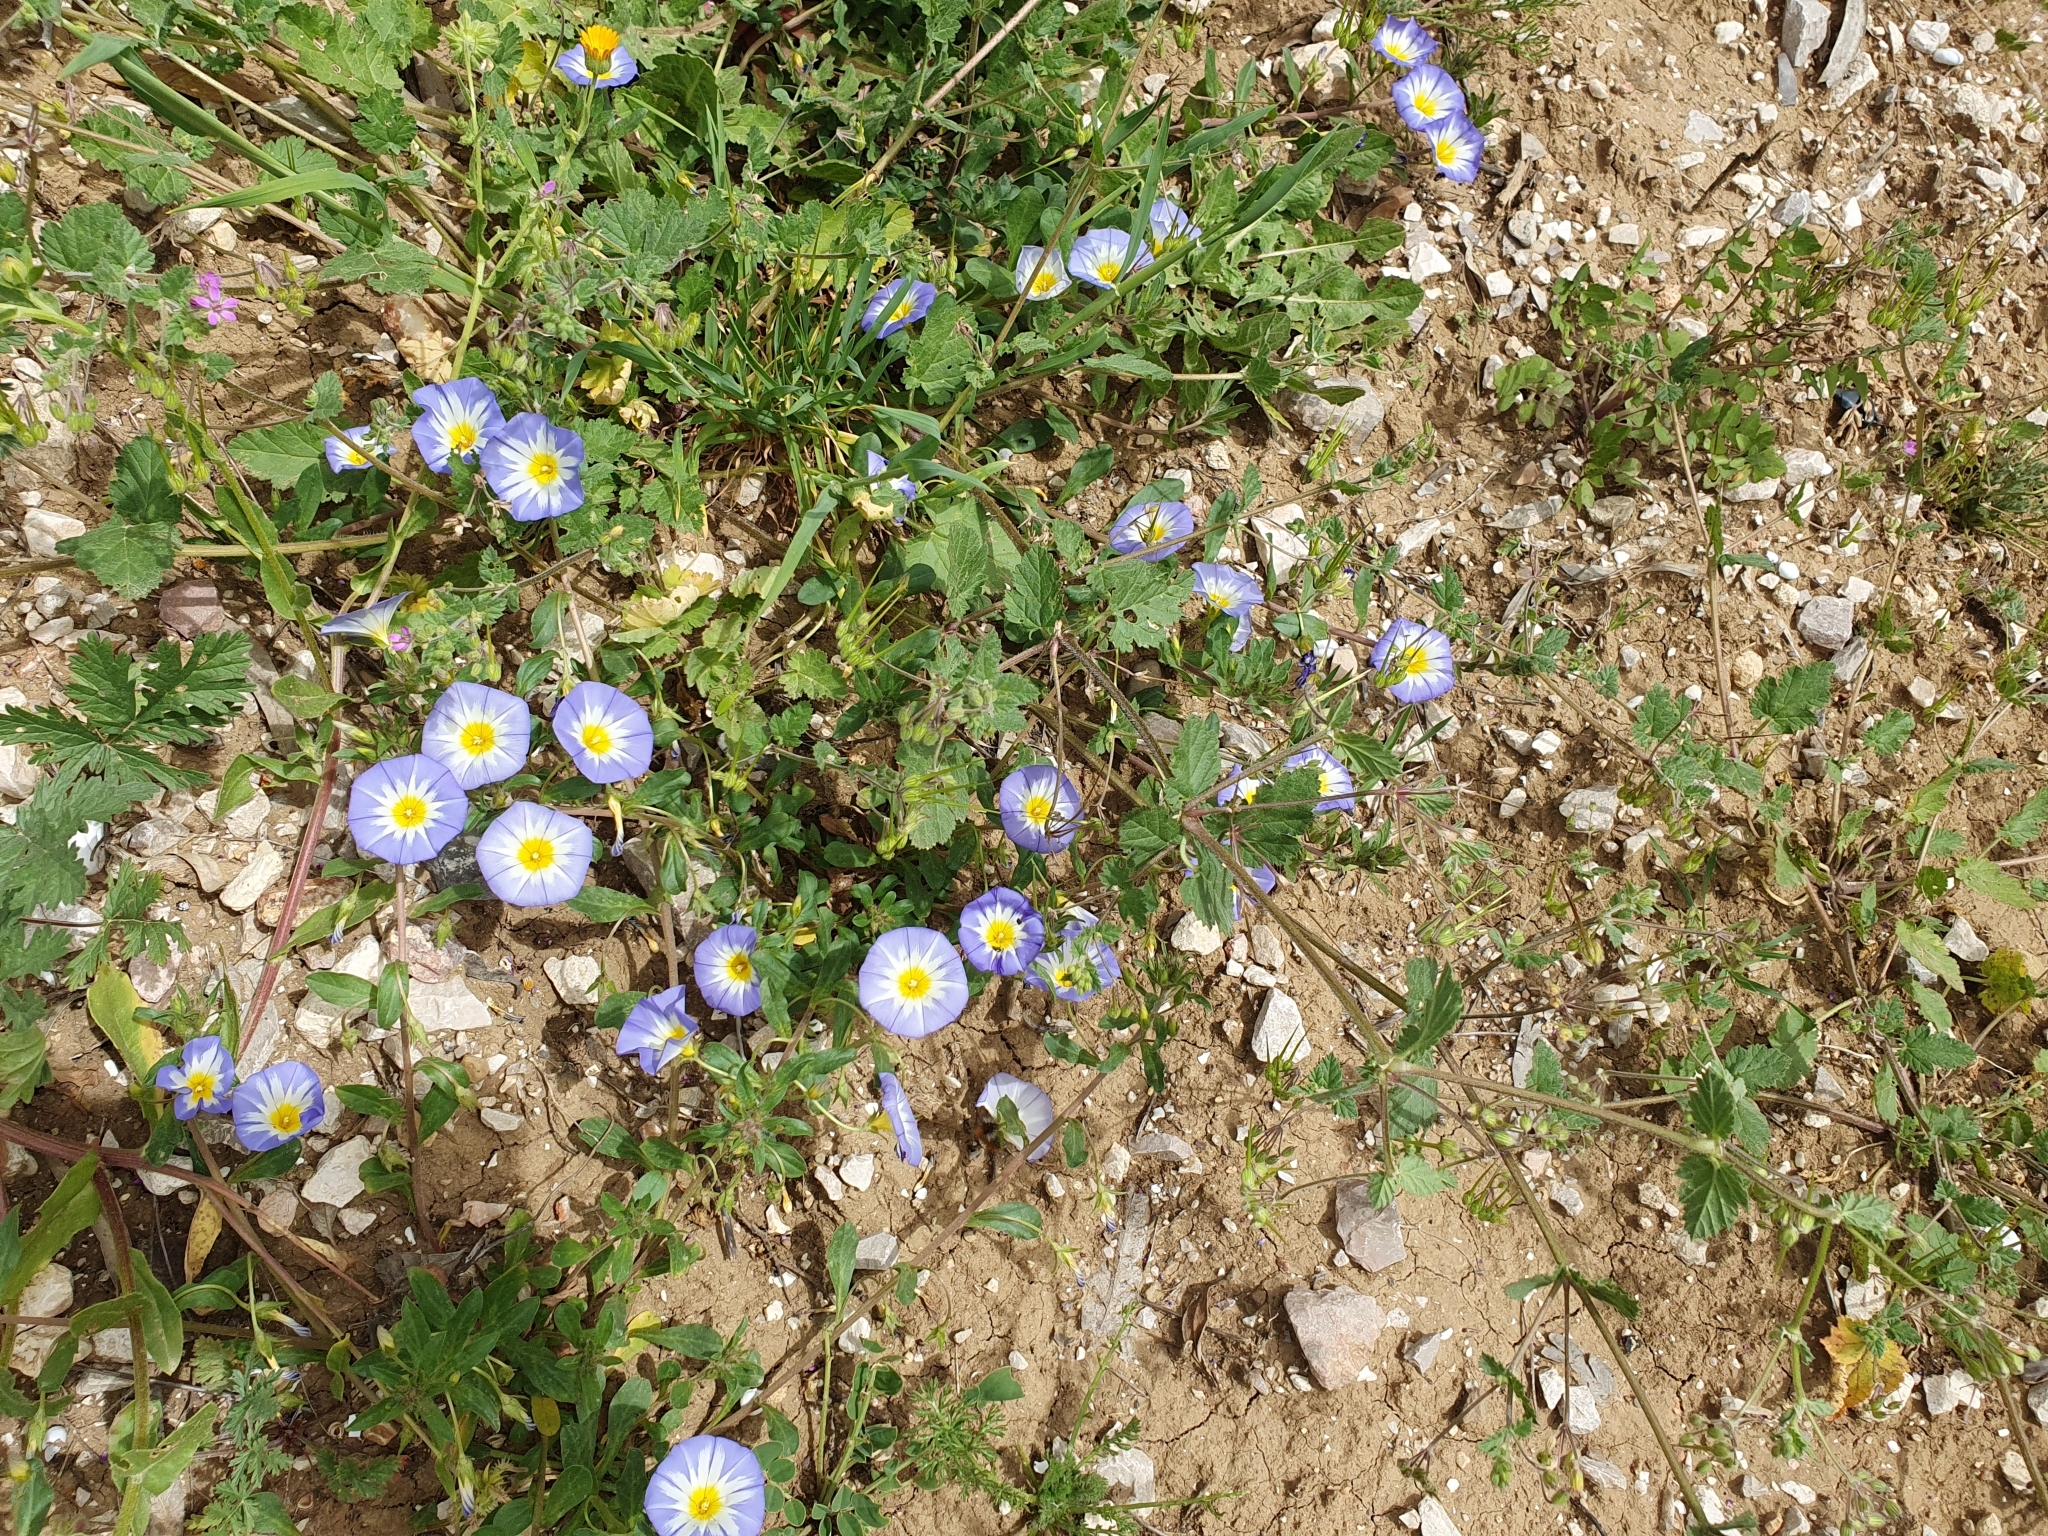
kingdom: Plantae
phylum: Tracheophyta
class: Magnoliopsida
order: Solanales
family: Convolvulaceae
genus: Convolvulus
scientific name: Convolvulus tricolor
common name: Dwarf morning-glory
